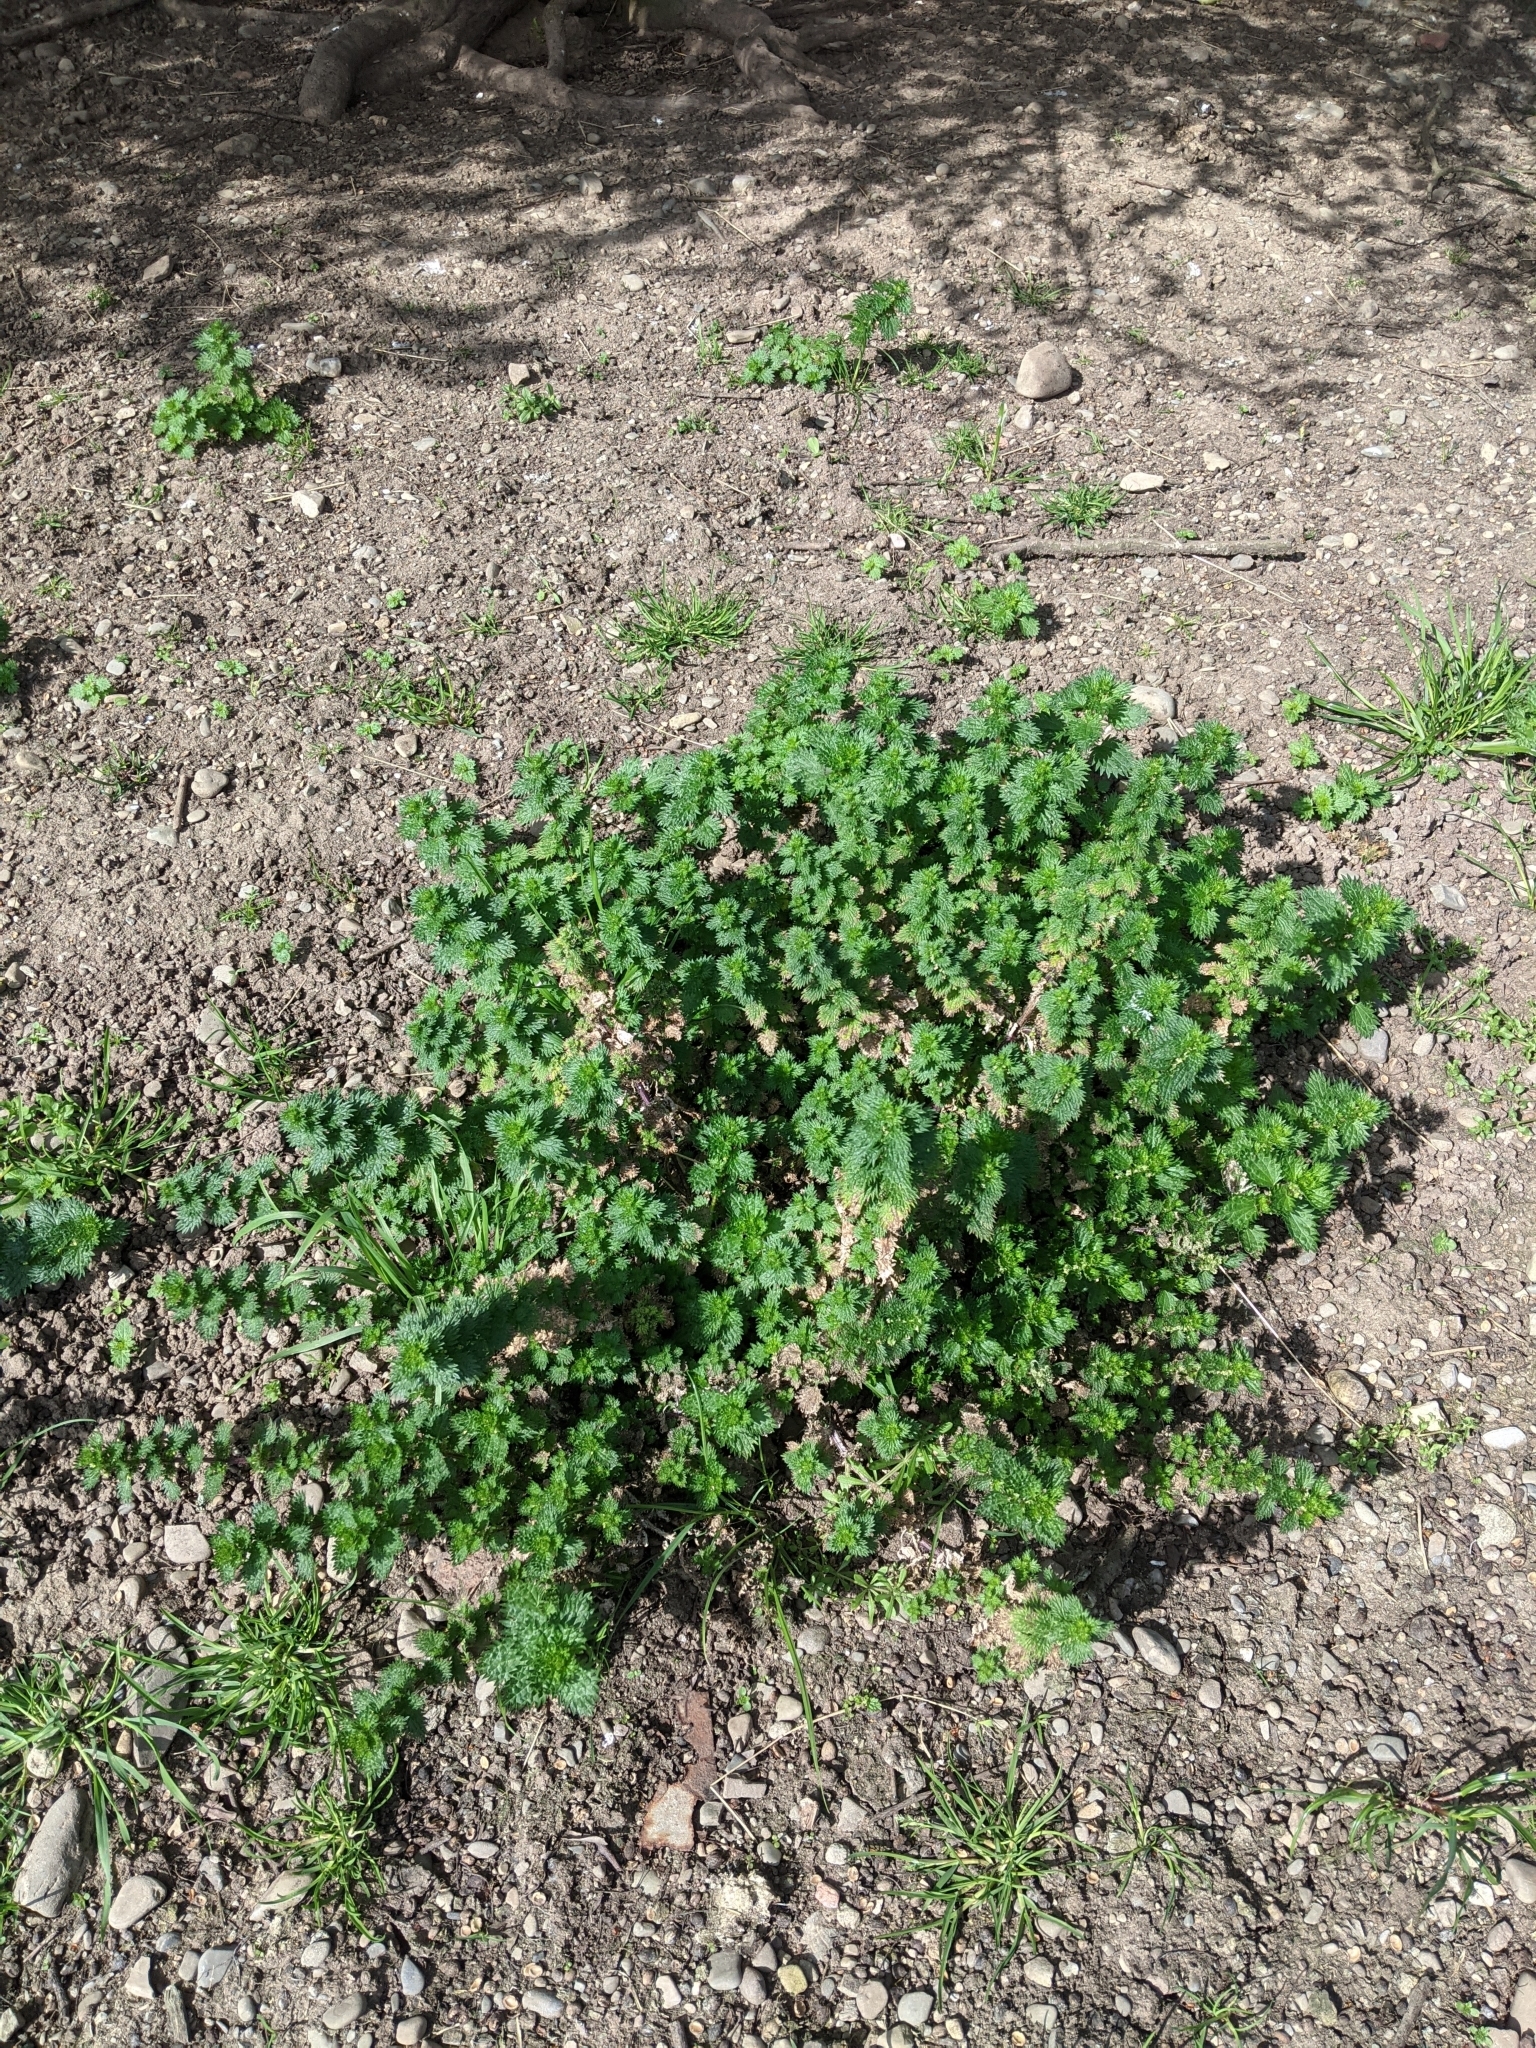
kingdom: Plantae
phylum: Tracheophyta
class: Magnoliopsida
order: Rosales
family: Urticaceae
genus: Urtica
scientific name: Urtica urens
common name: Dwarf nettle
